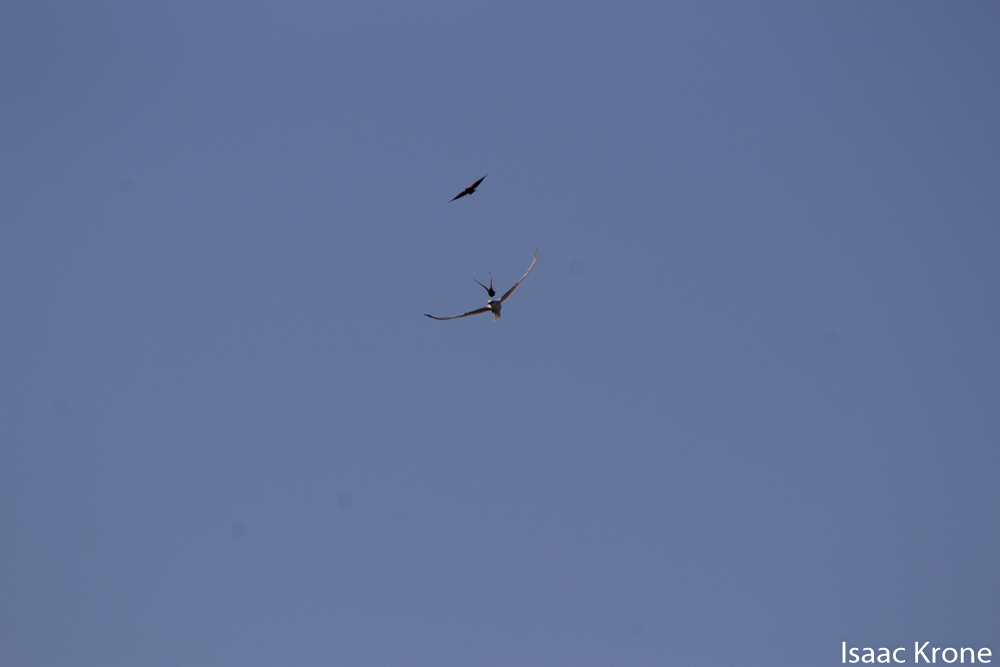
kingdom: Animalia
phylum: Chordata
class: Aves
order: Accipitriformes
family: Accipitridae
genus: Elanus
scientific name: Elanus leucurus
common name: White-tailed kite
